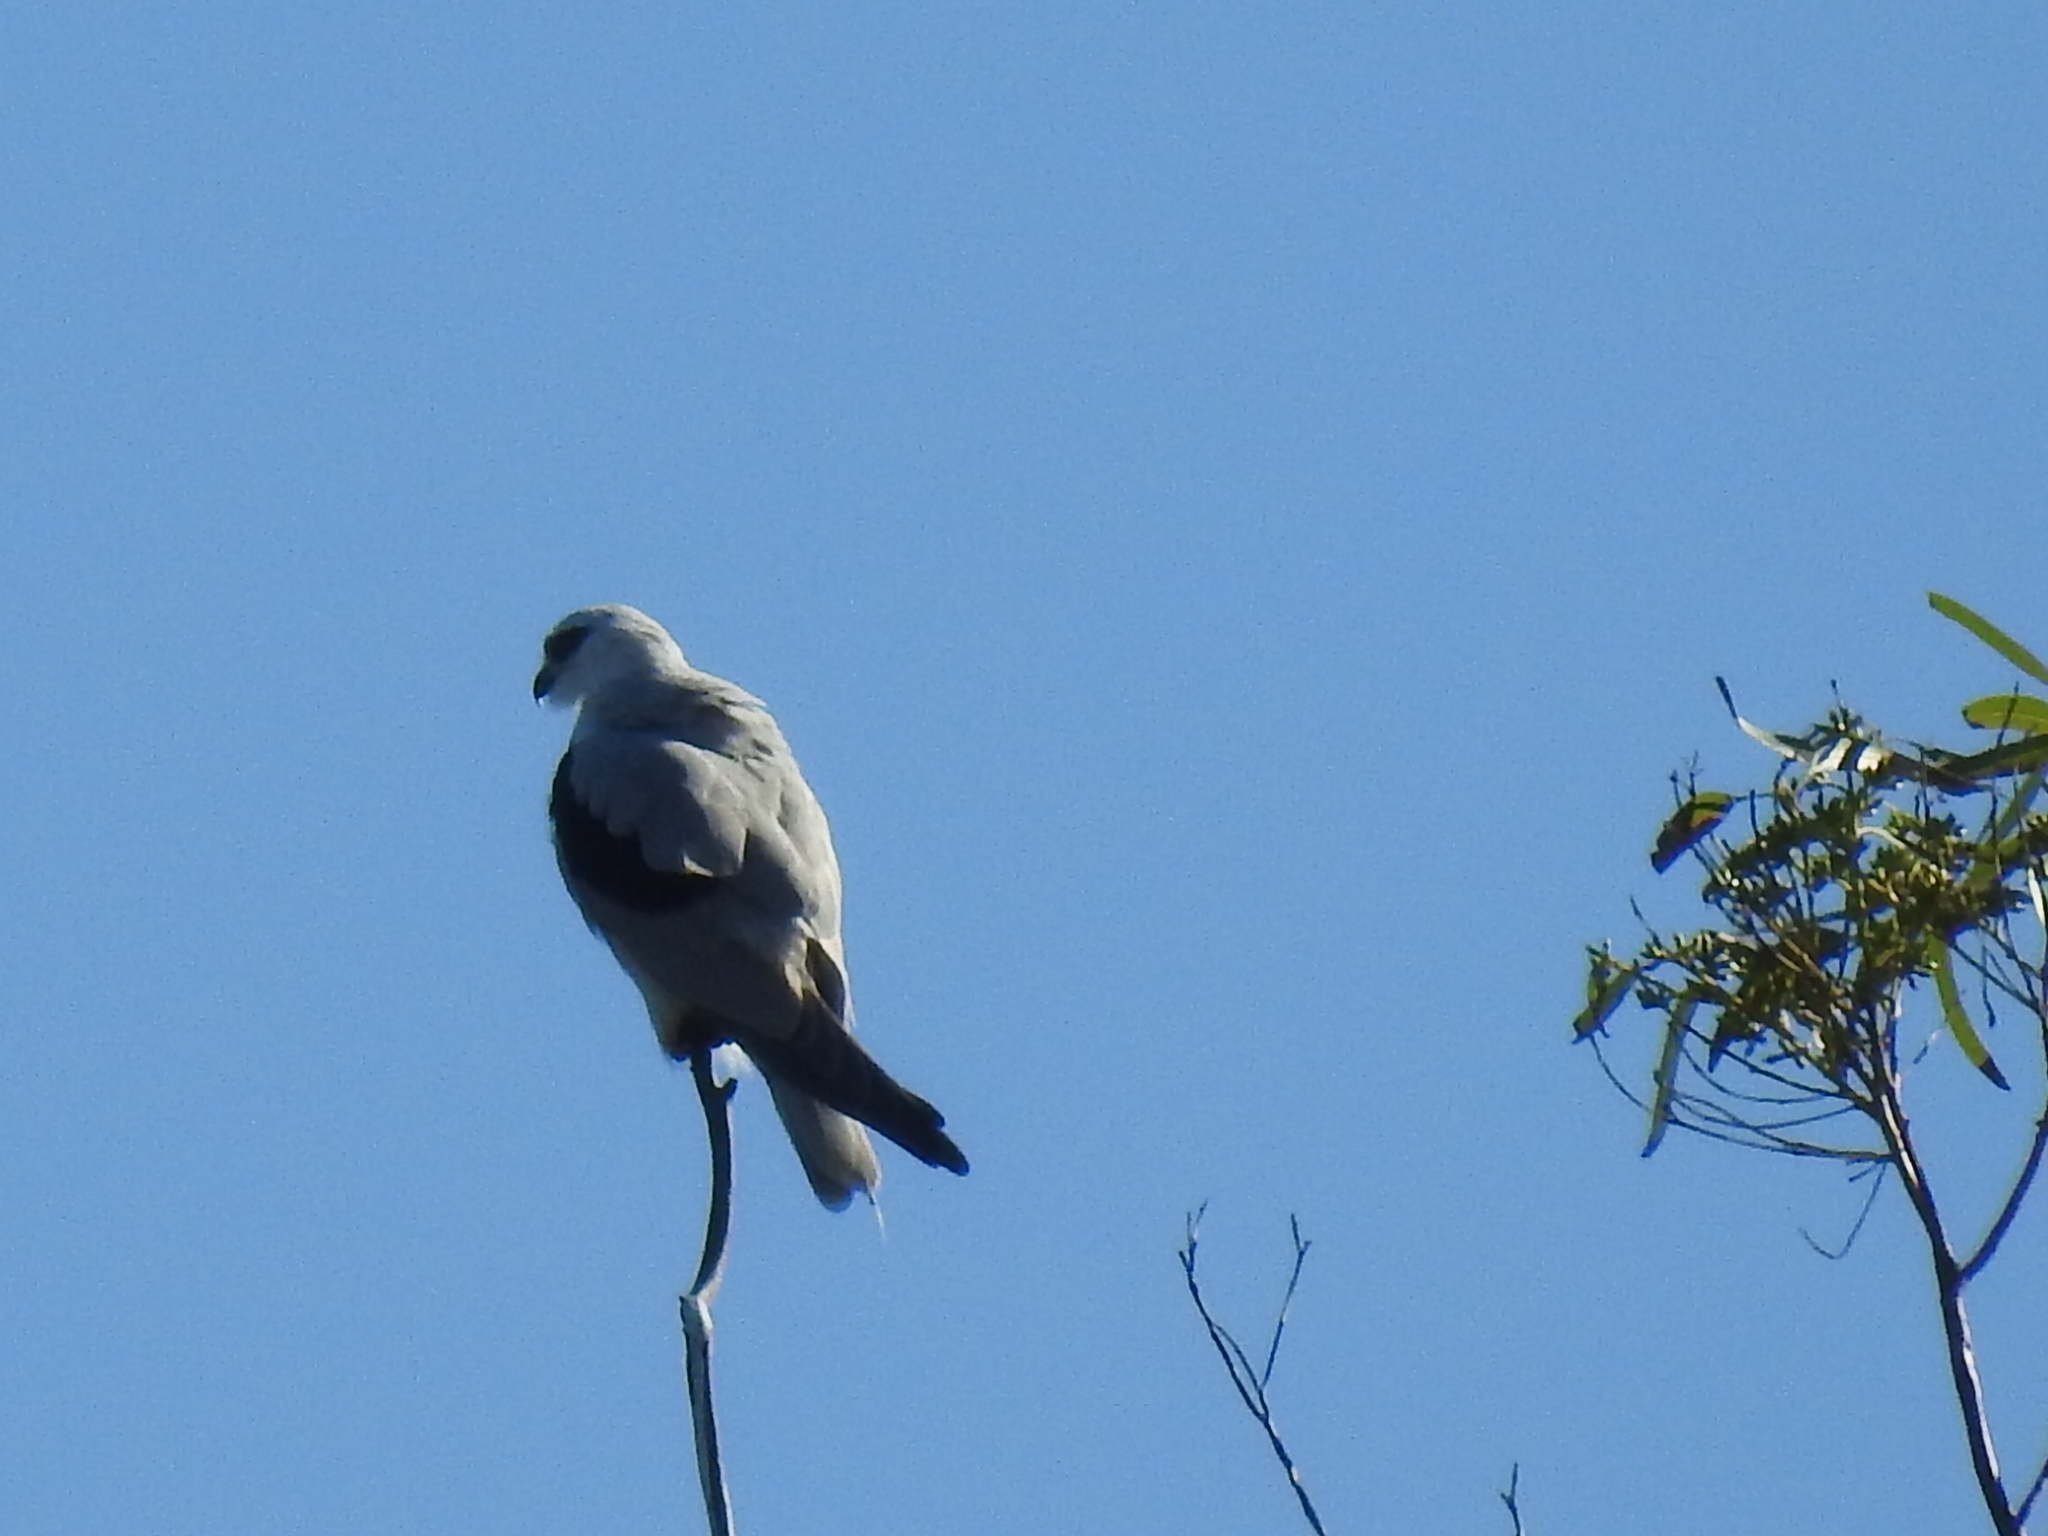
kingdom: Animalia
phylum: Chordata
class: Aves
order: Accipitriformes
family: Accipitridae
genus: Elanus
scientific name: Elanus axillaris
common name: Black-shouldered kite
